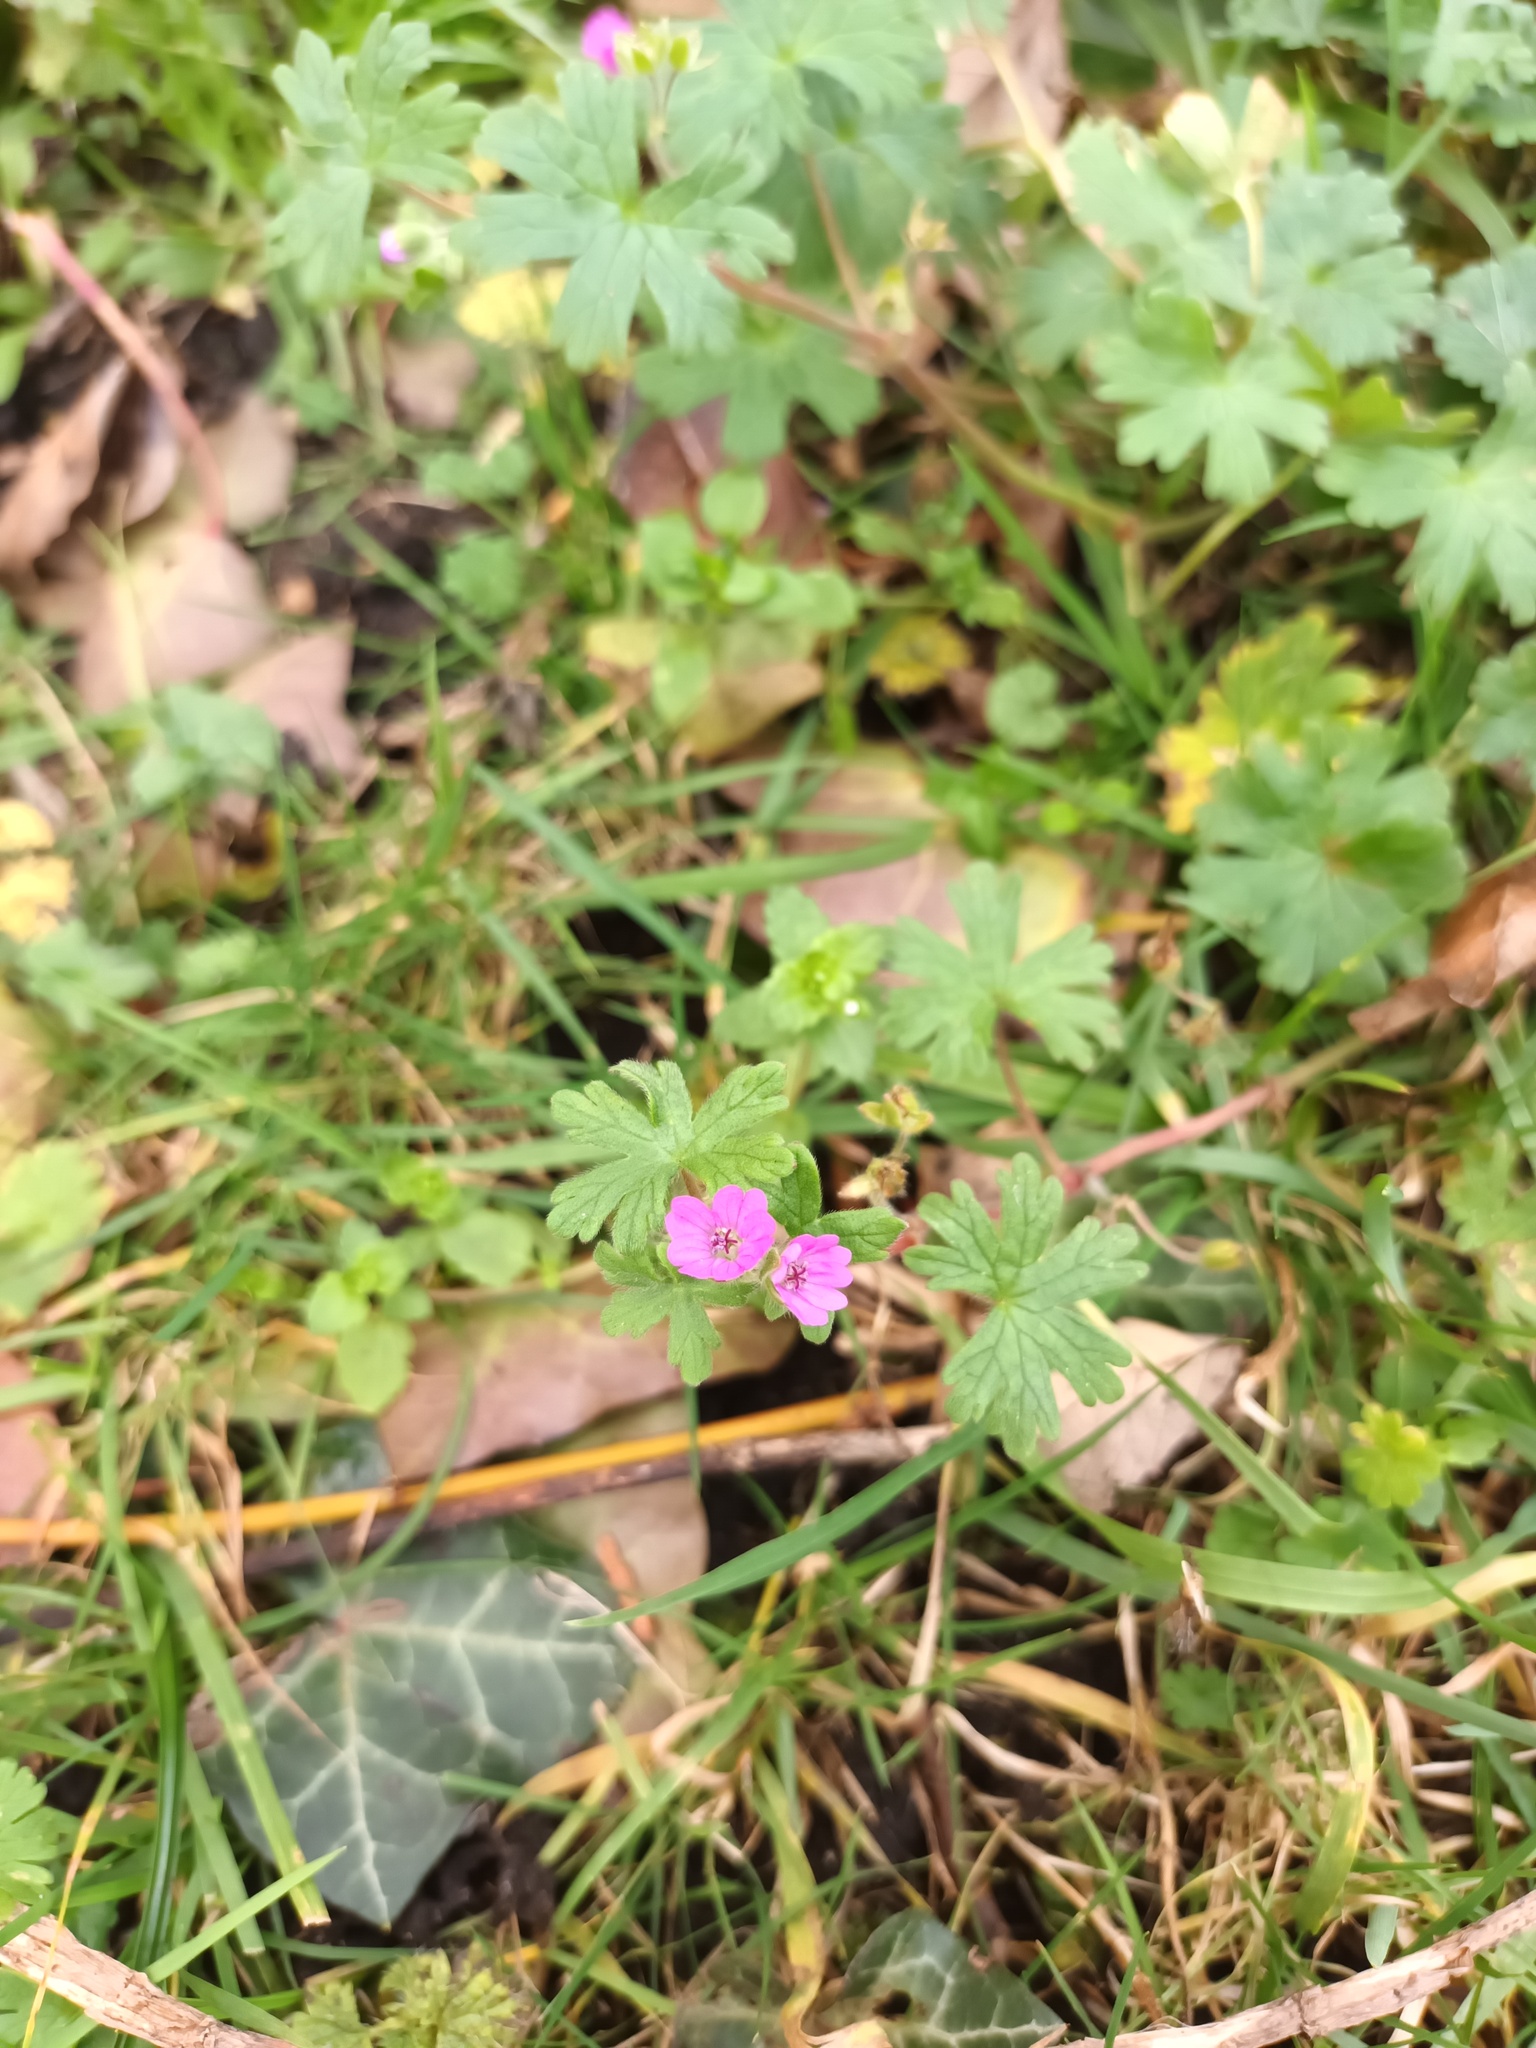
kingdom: Plantae
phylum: Tracheophyta
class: Magnoliopsida
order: Geraniales
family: Geraniaceae
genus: Geranium
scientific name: Geranium molle
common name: Dove's-foot crane's-bill
